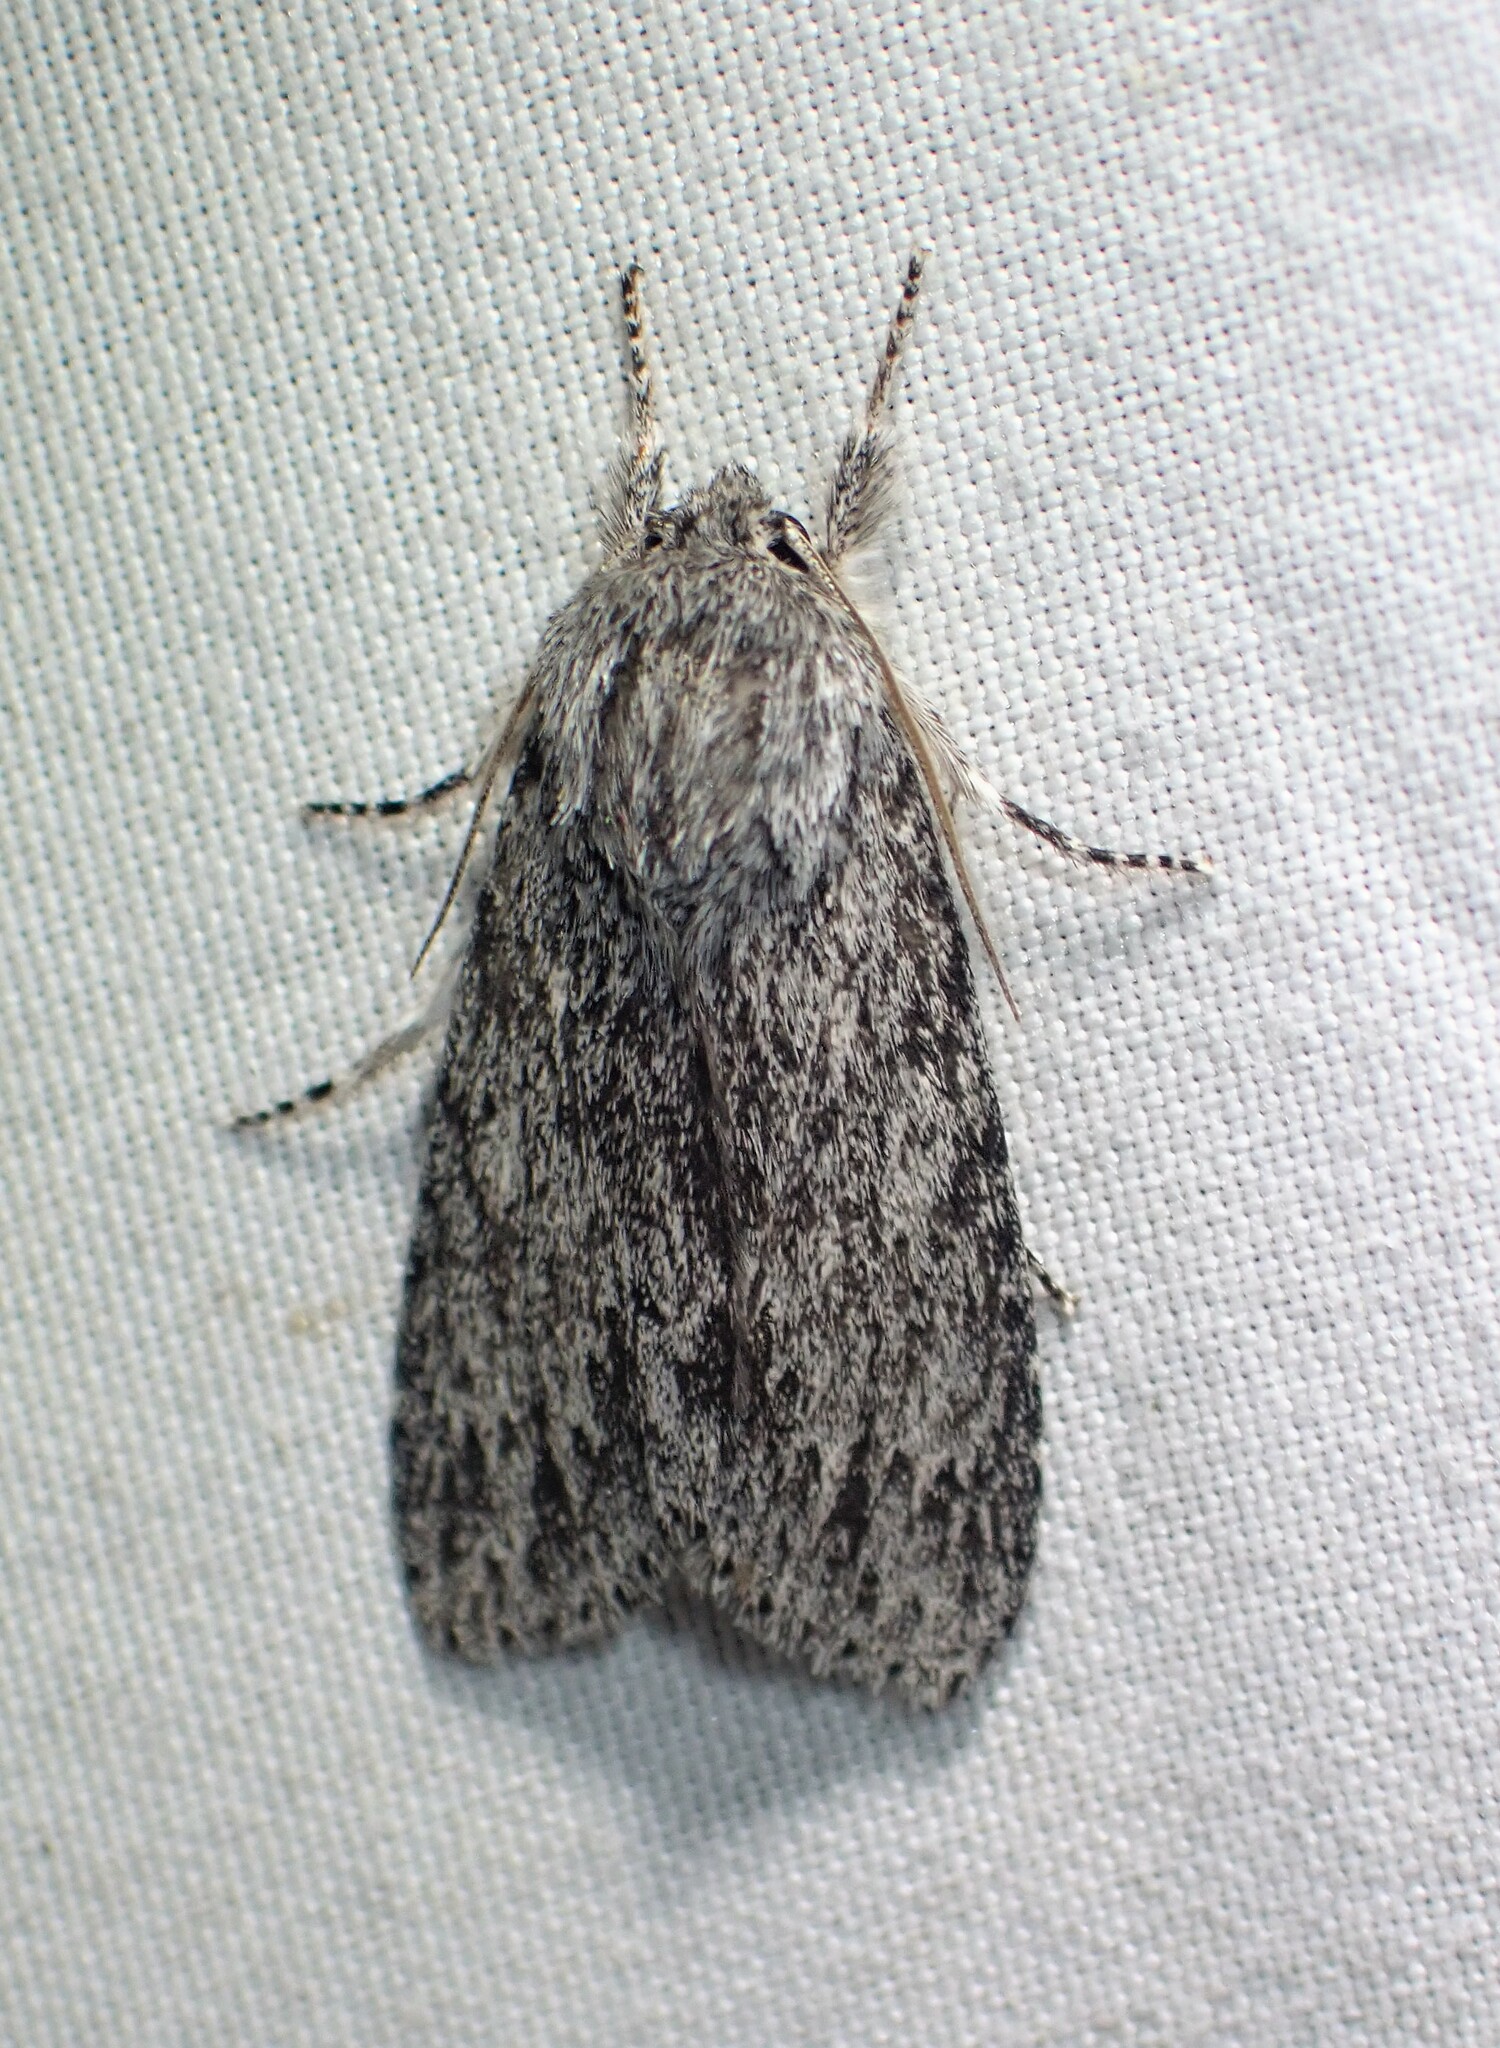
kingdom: Animalia
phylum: Arthropoda
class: Insecta
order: Lepidoptera
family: Noctuidae
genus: Acronicta
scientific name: Acronicta oblinita
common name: Smeared dagger
